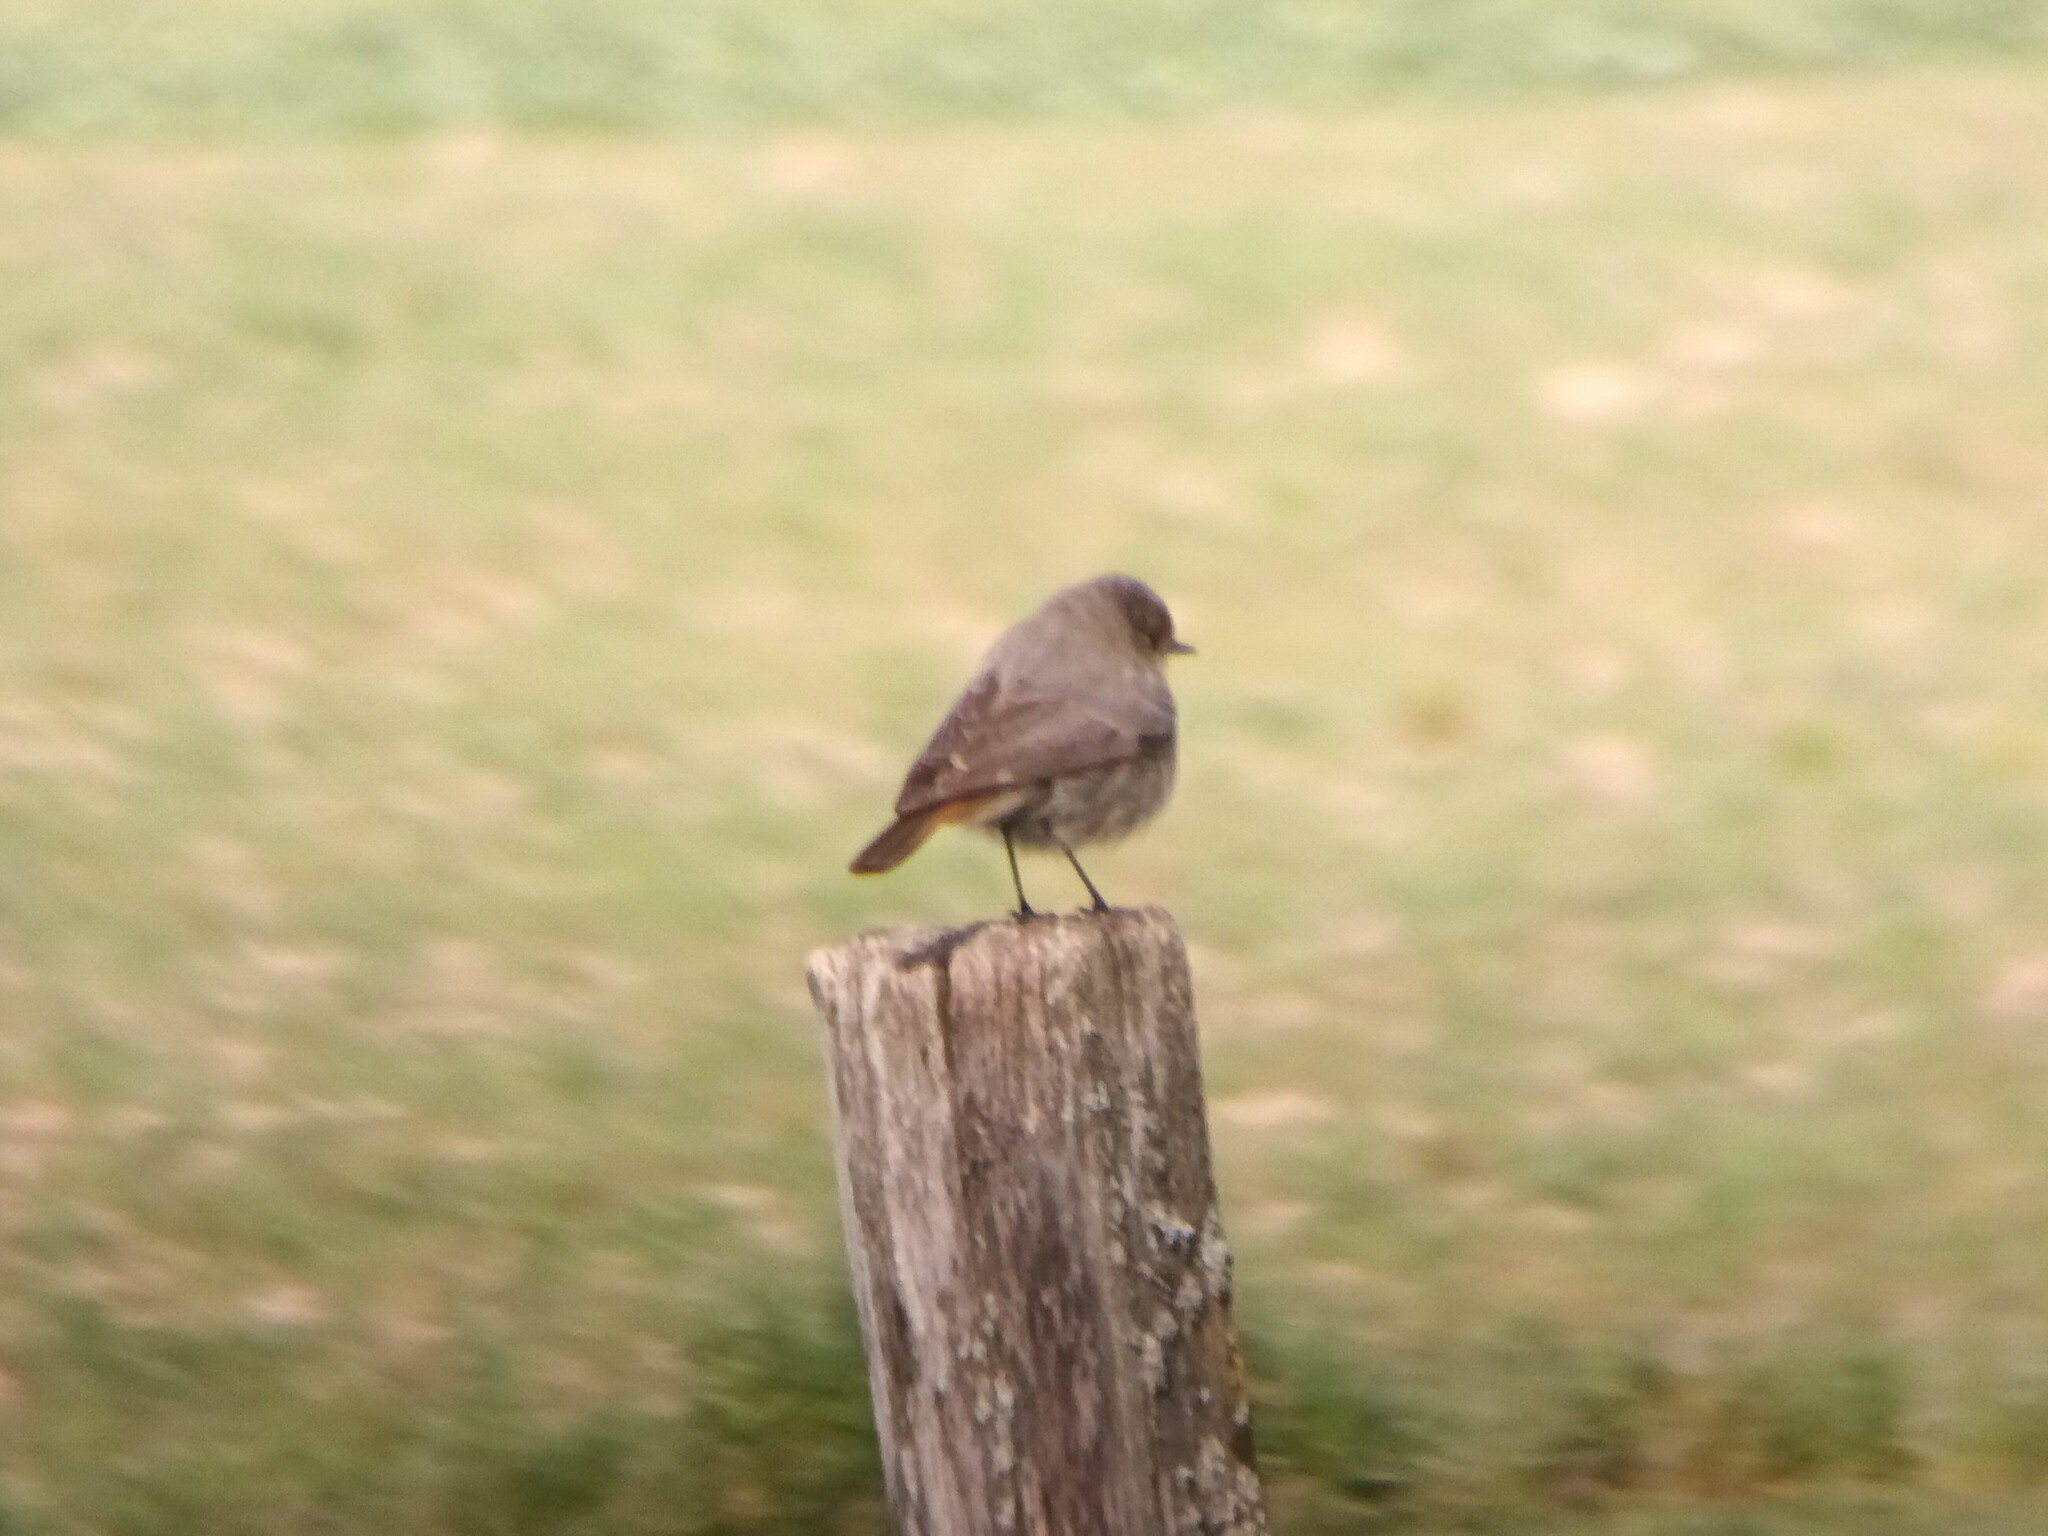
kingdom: Animalia
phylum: Chordata
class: Aves
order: Passeriformes
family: Muscicapidae
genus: Phoenicurus
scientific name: Phoenicurus ochruros
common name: Black redstart
